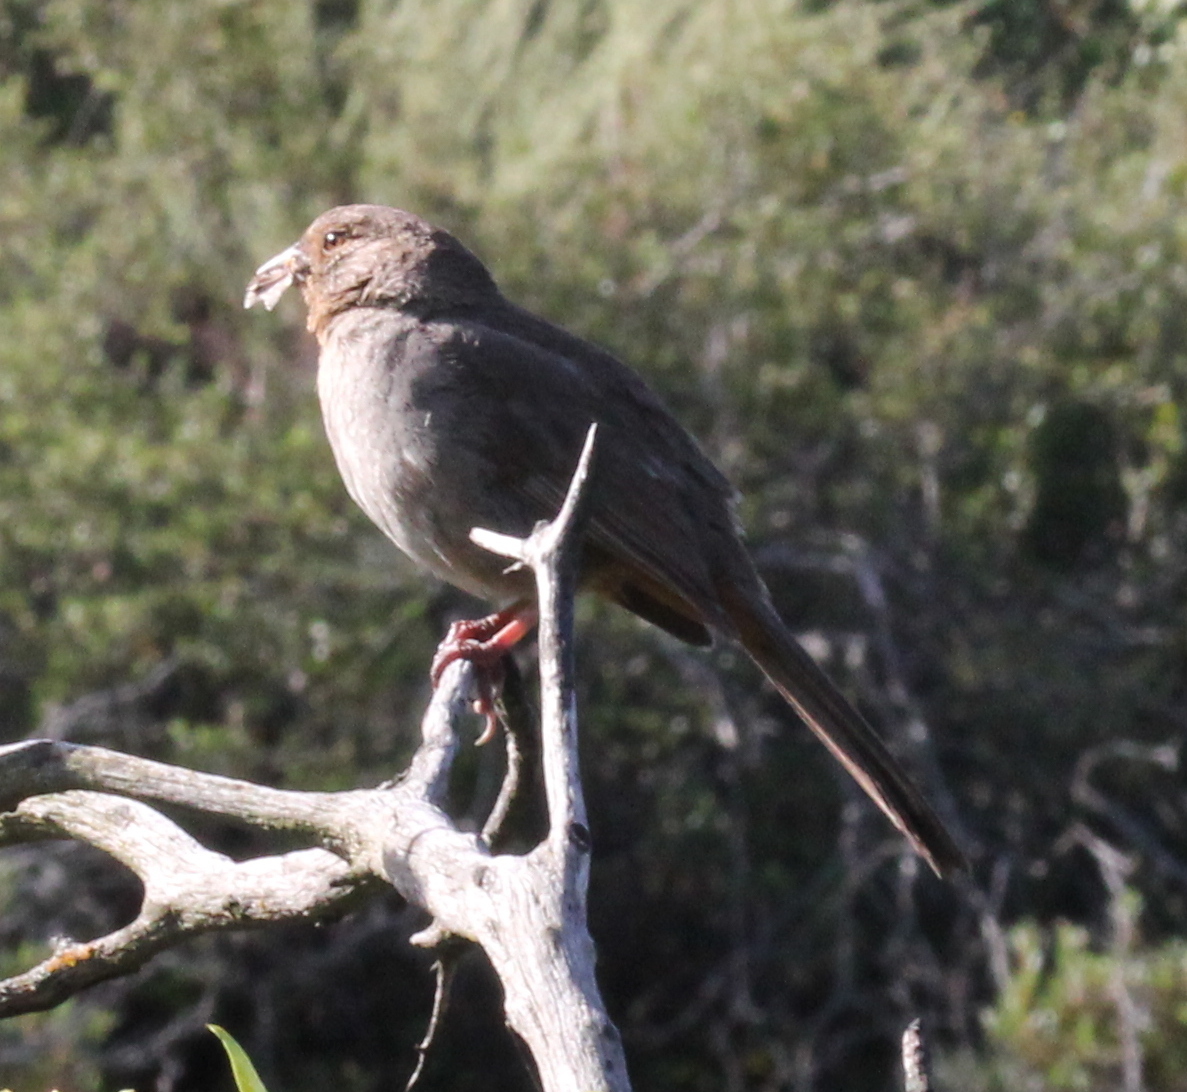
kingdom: Animalia
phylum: Chordata
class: Aves
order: Passeriformes
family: Passerellidae
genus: Melozone
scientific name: Melozone crissalis
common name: California towhee
